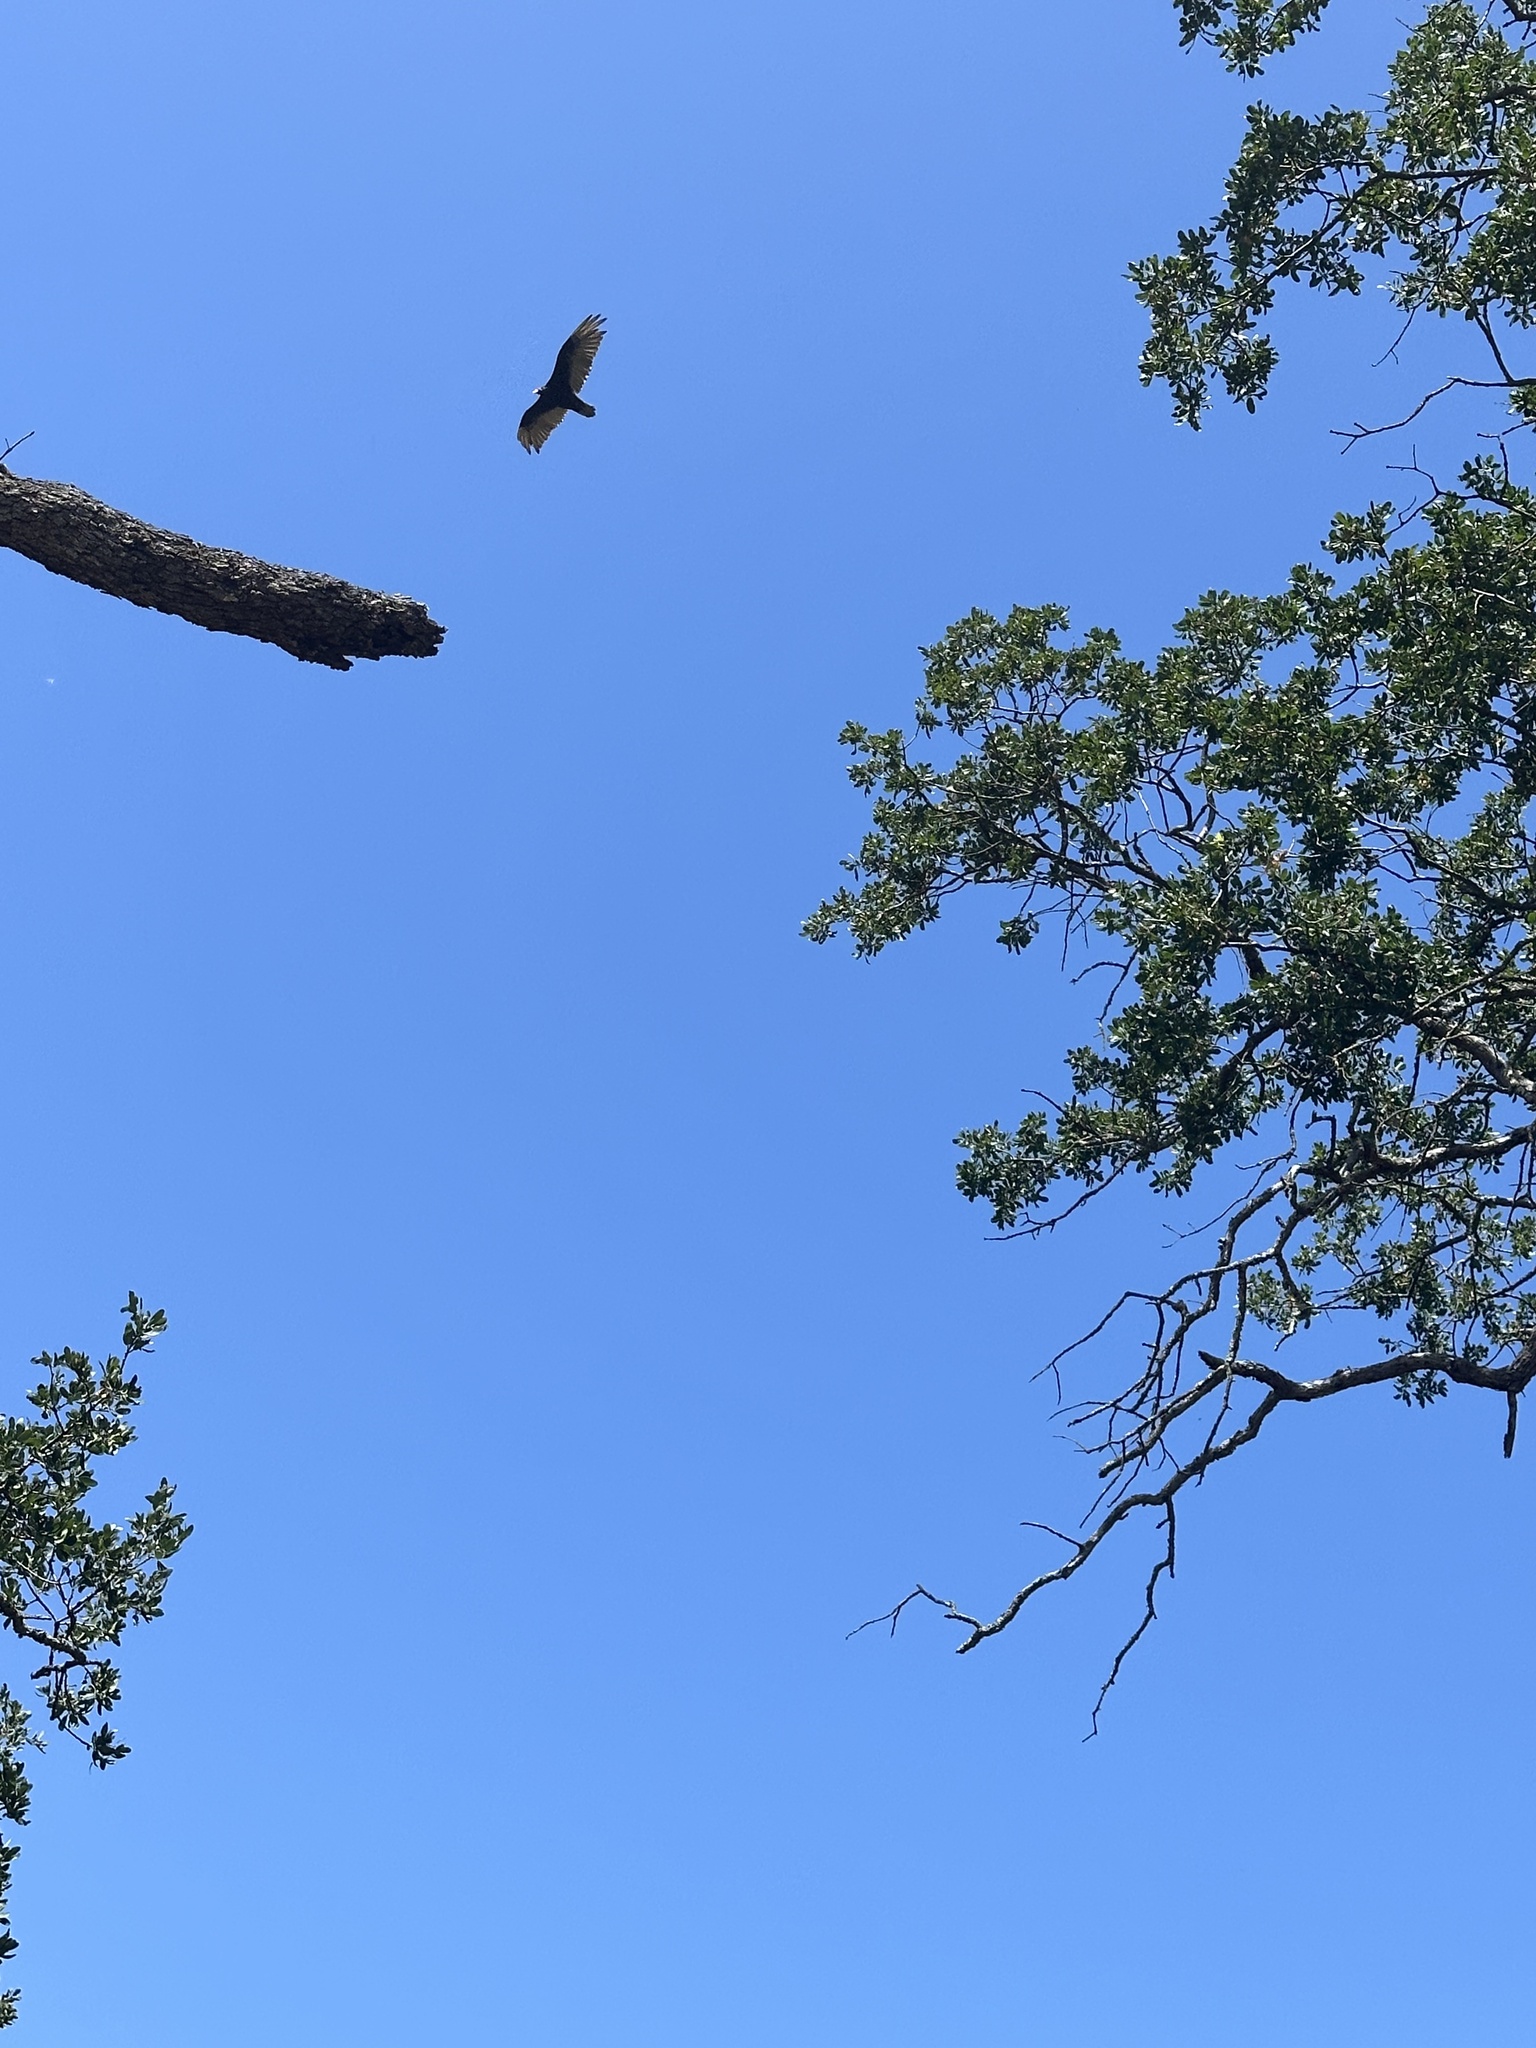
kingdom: Animalia
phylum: Chordata
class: Aves
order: Accipitriformes
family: Cathartidae
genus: Cathartes
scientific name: Cathartes aura
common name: Turkey vulture
